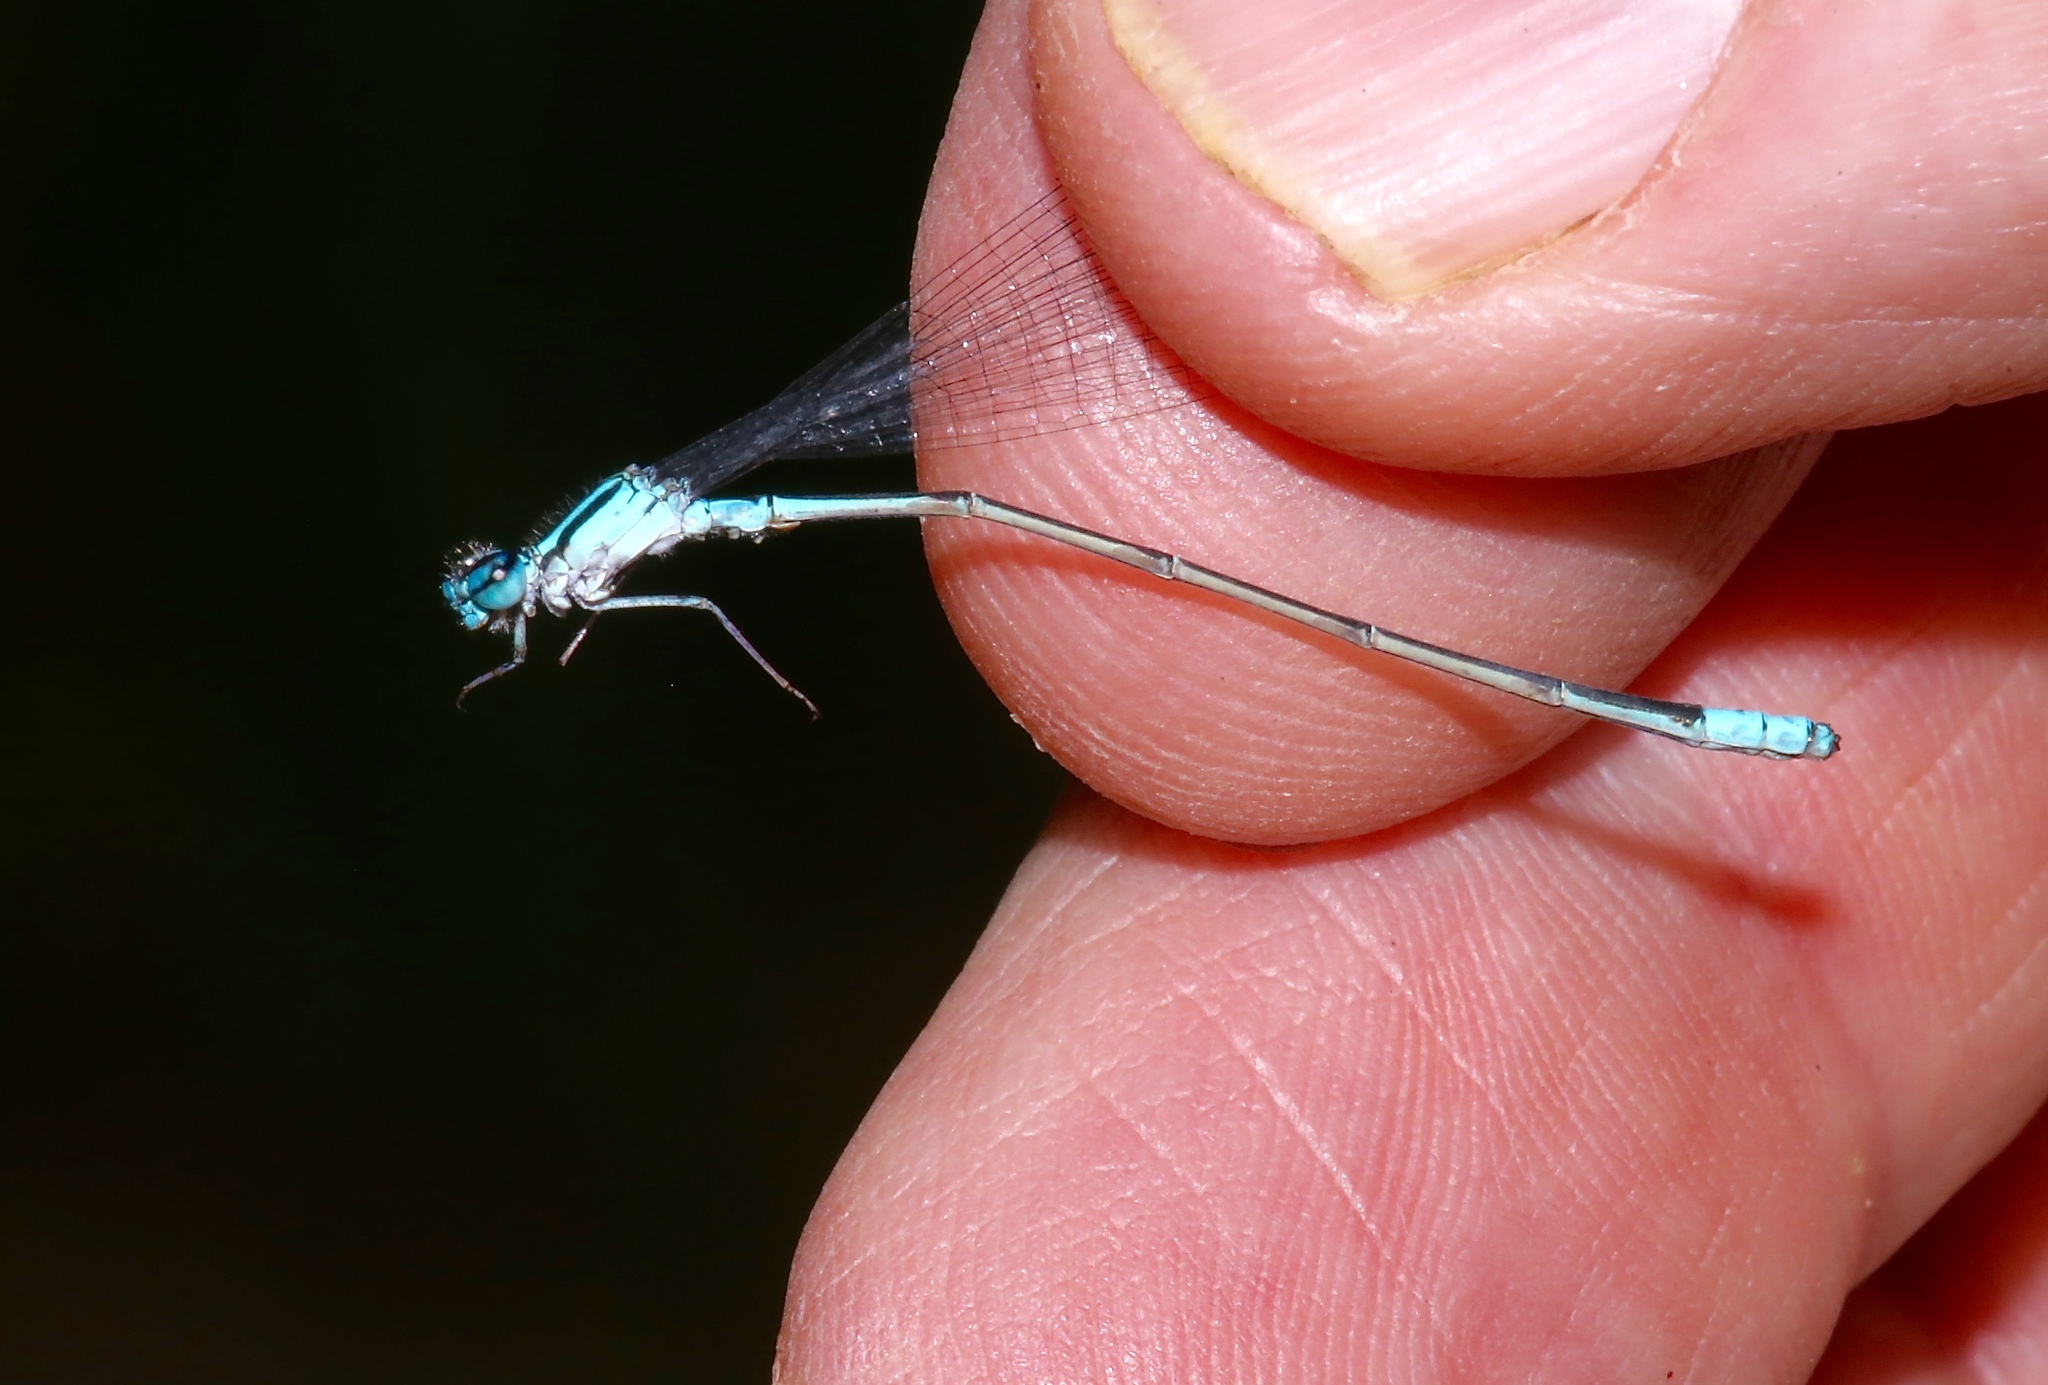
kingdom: Animalia
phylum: Arthropoda
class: Insecta
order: Odonata
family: Coenagrionidae
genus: Enallagma
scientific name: Enallagma divagans
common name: Turquoise bluet
